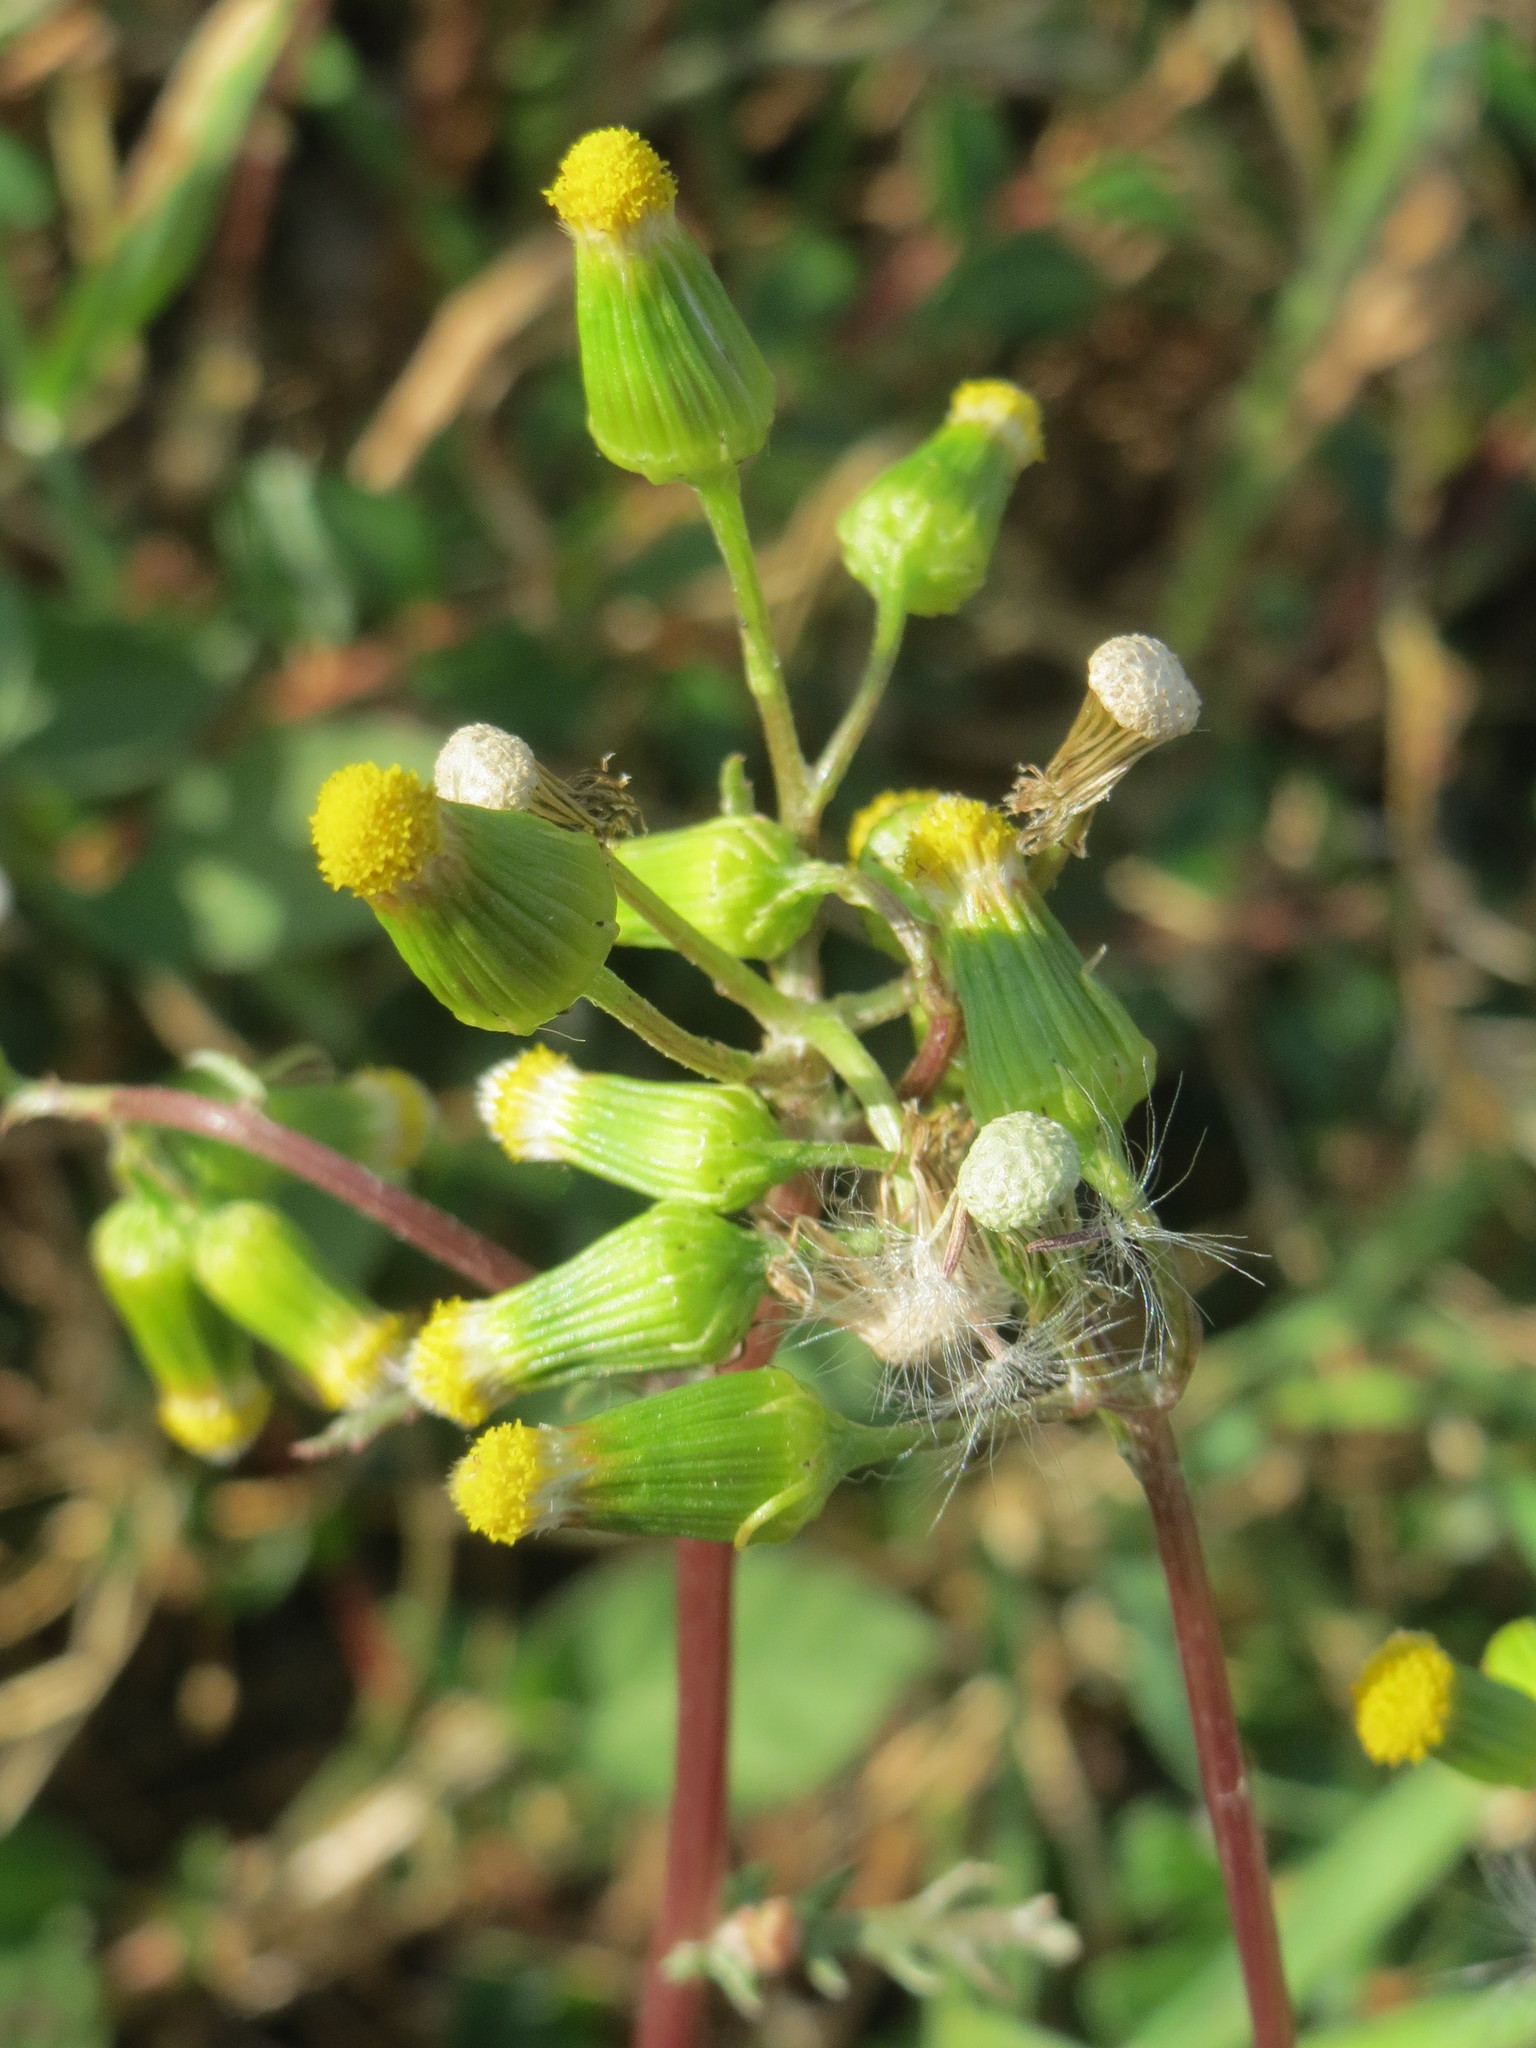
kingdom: Plantae
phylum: Tracheophyta
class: Magnoliopsida
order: Asterales
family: Asteraceae
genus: Senecio
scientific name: Senecio vulgaris
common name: Old-man-in-the-spring
